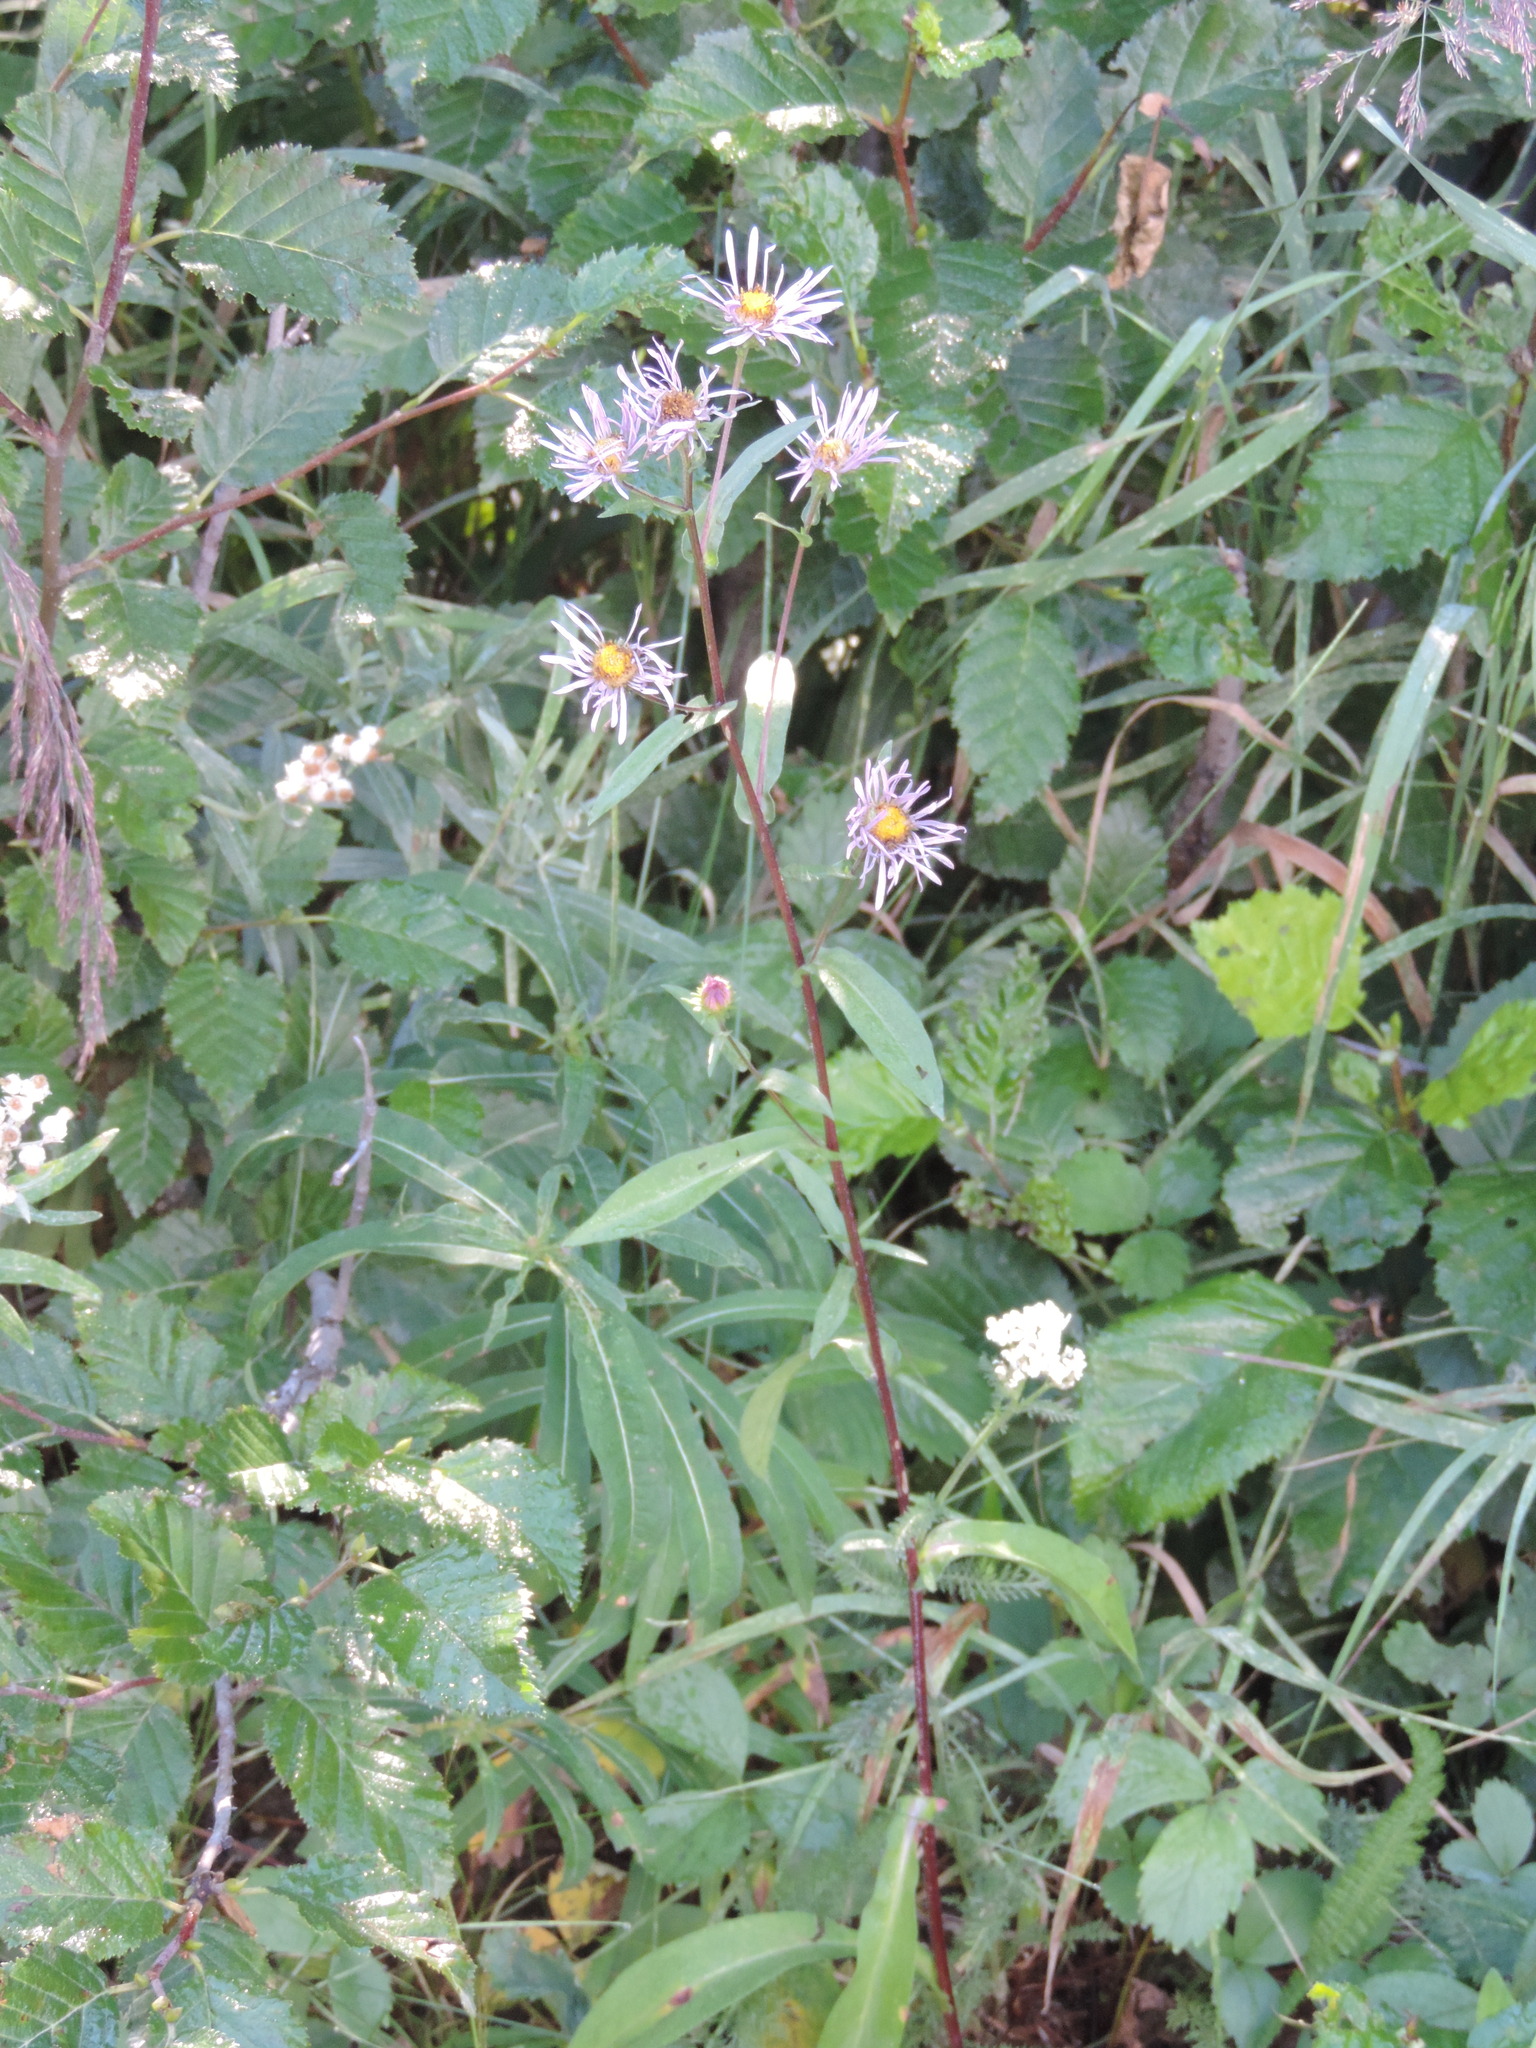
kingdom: Plantae
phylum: Tracheophyta
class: Magnoliopsida
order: Asterales
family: Asteraceae
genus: Symphyotrichum
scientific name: Symphyotrichum foliaceum
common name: Leafy aster
